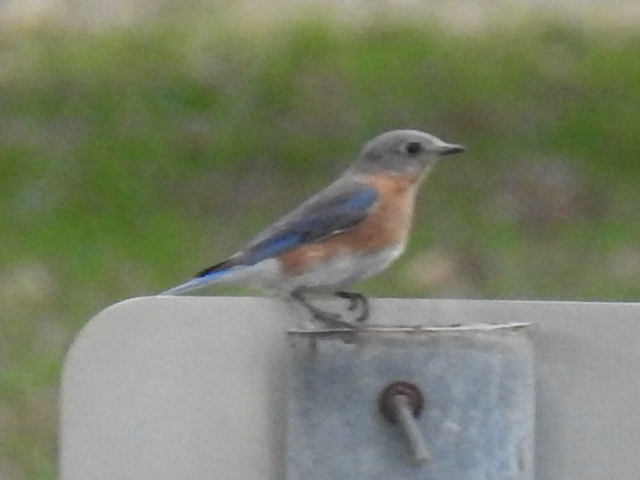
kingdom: Animalia
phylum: Chordata
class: Aves
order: Passeriformes
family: Turdidae
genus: Sialia
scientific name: Sialia sialis
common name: Eastern bluebird
